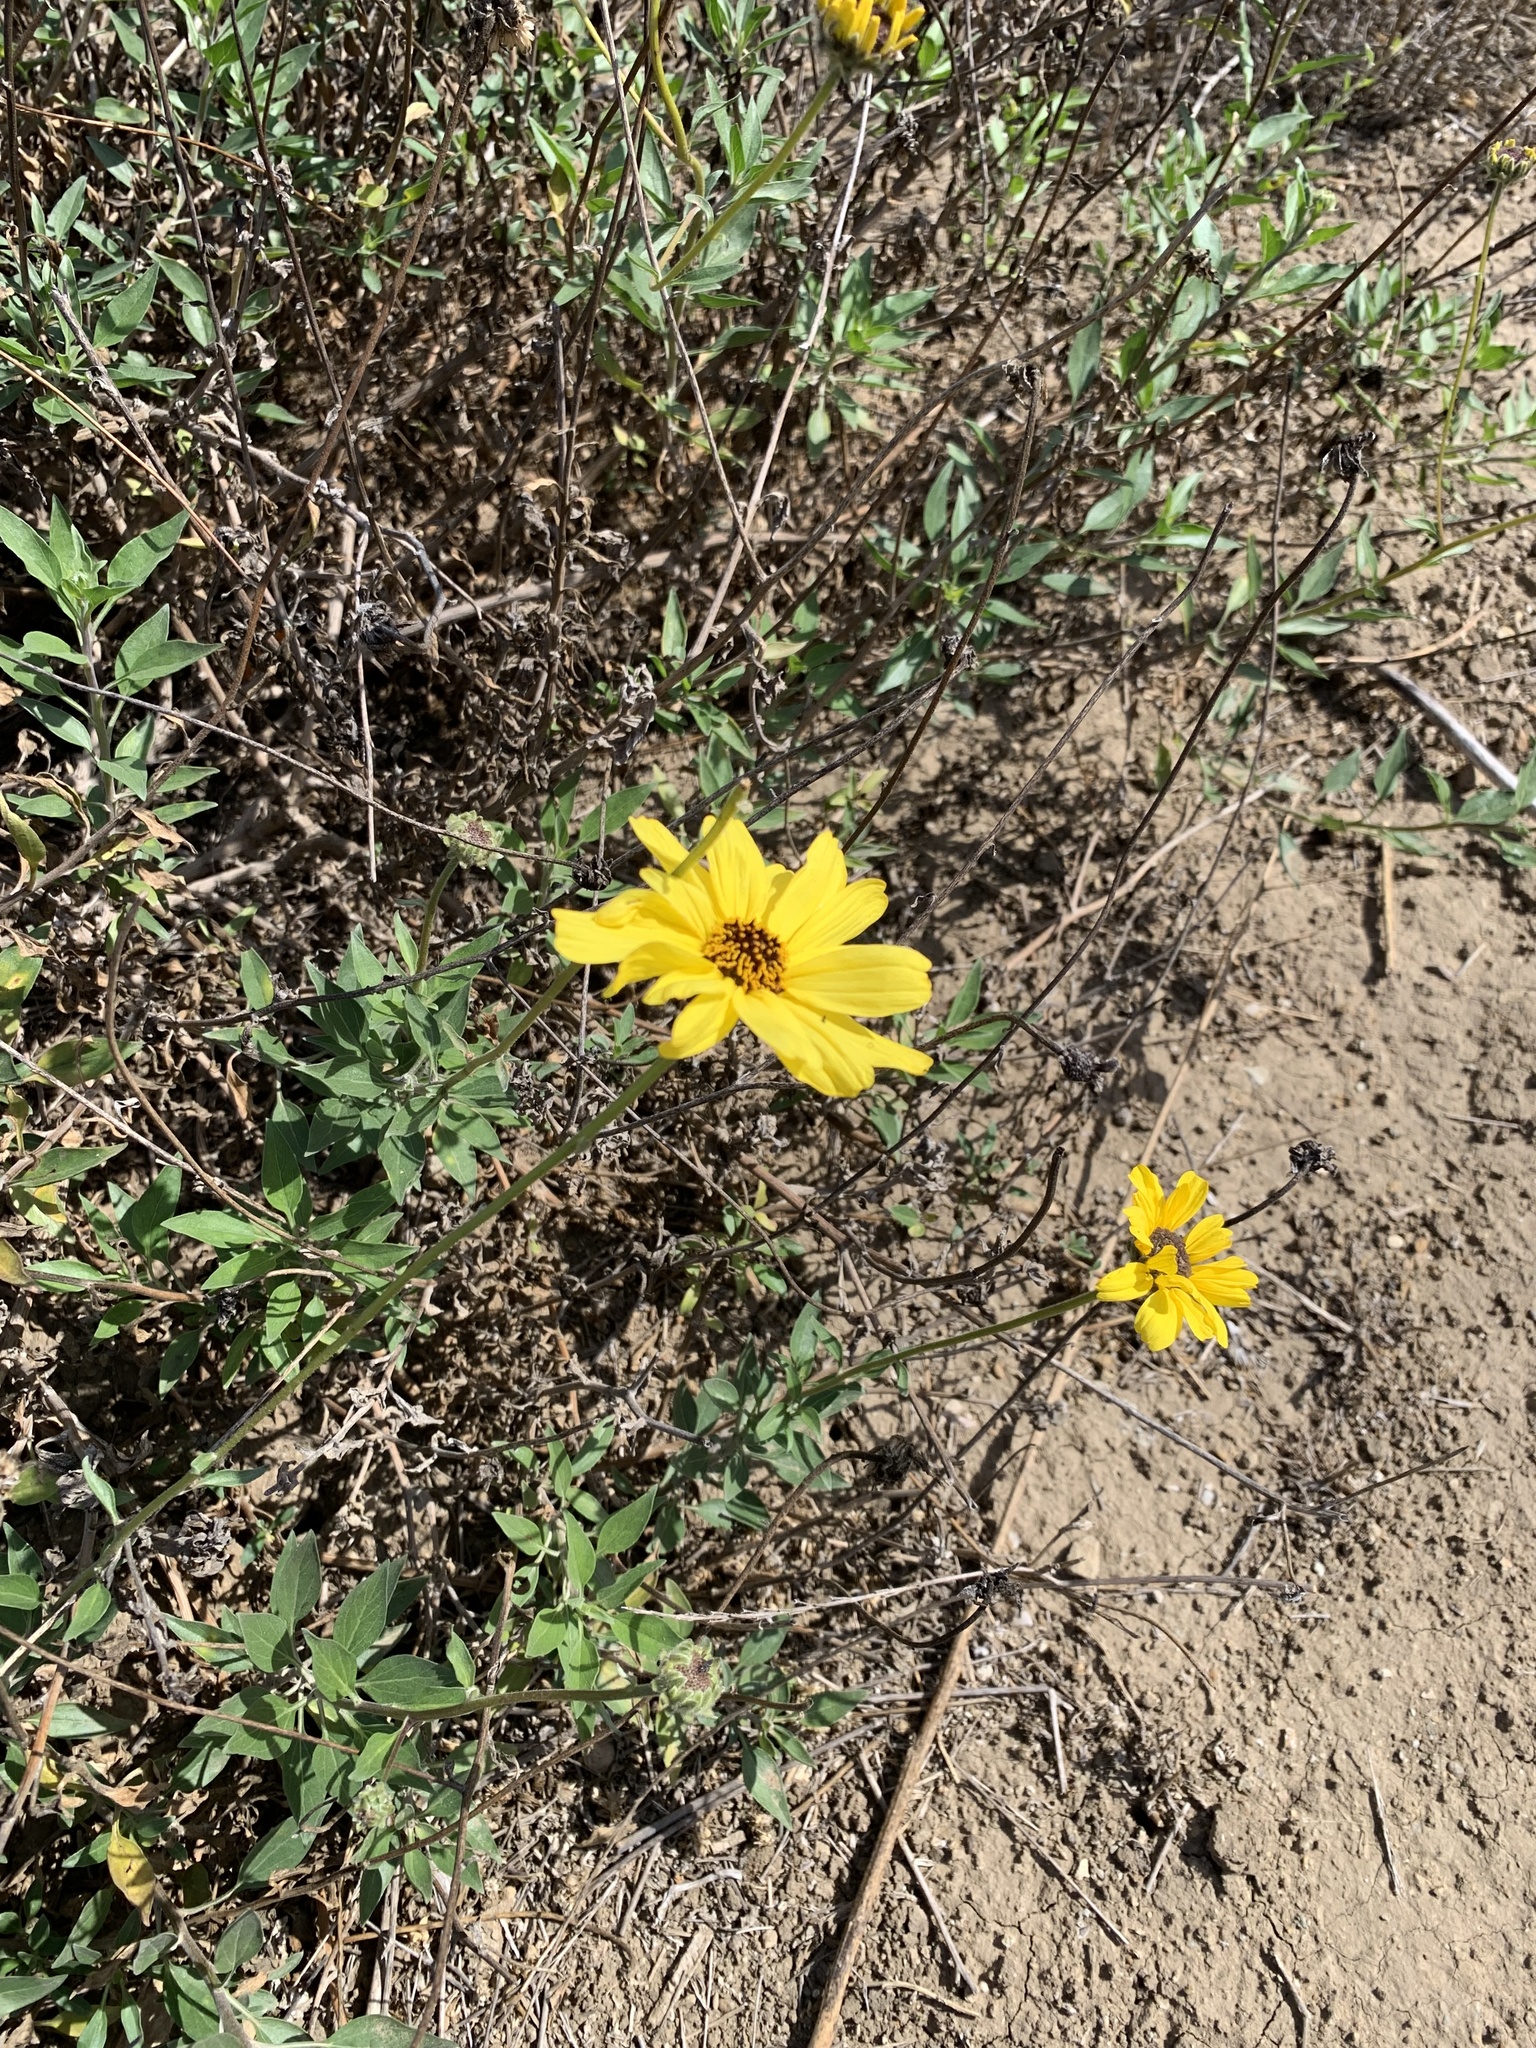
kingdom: Plantae
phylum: Tracheophyta
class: Magnoliopsida
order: Asterales
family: Asteraceae
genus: Encelia
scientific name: Encelia californica
